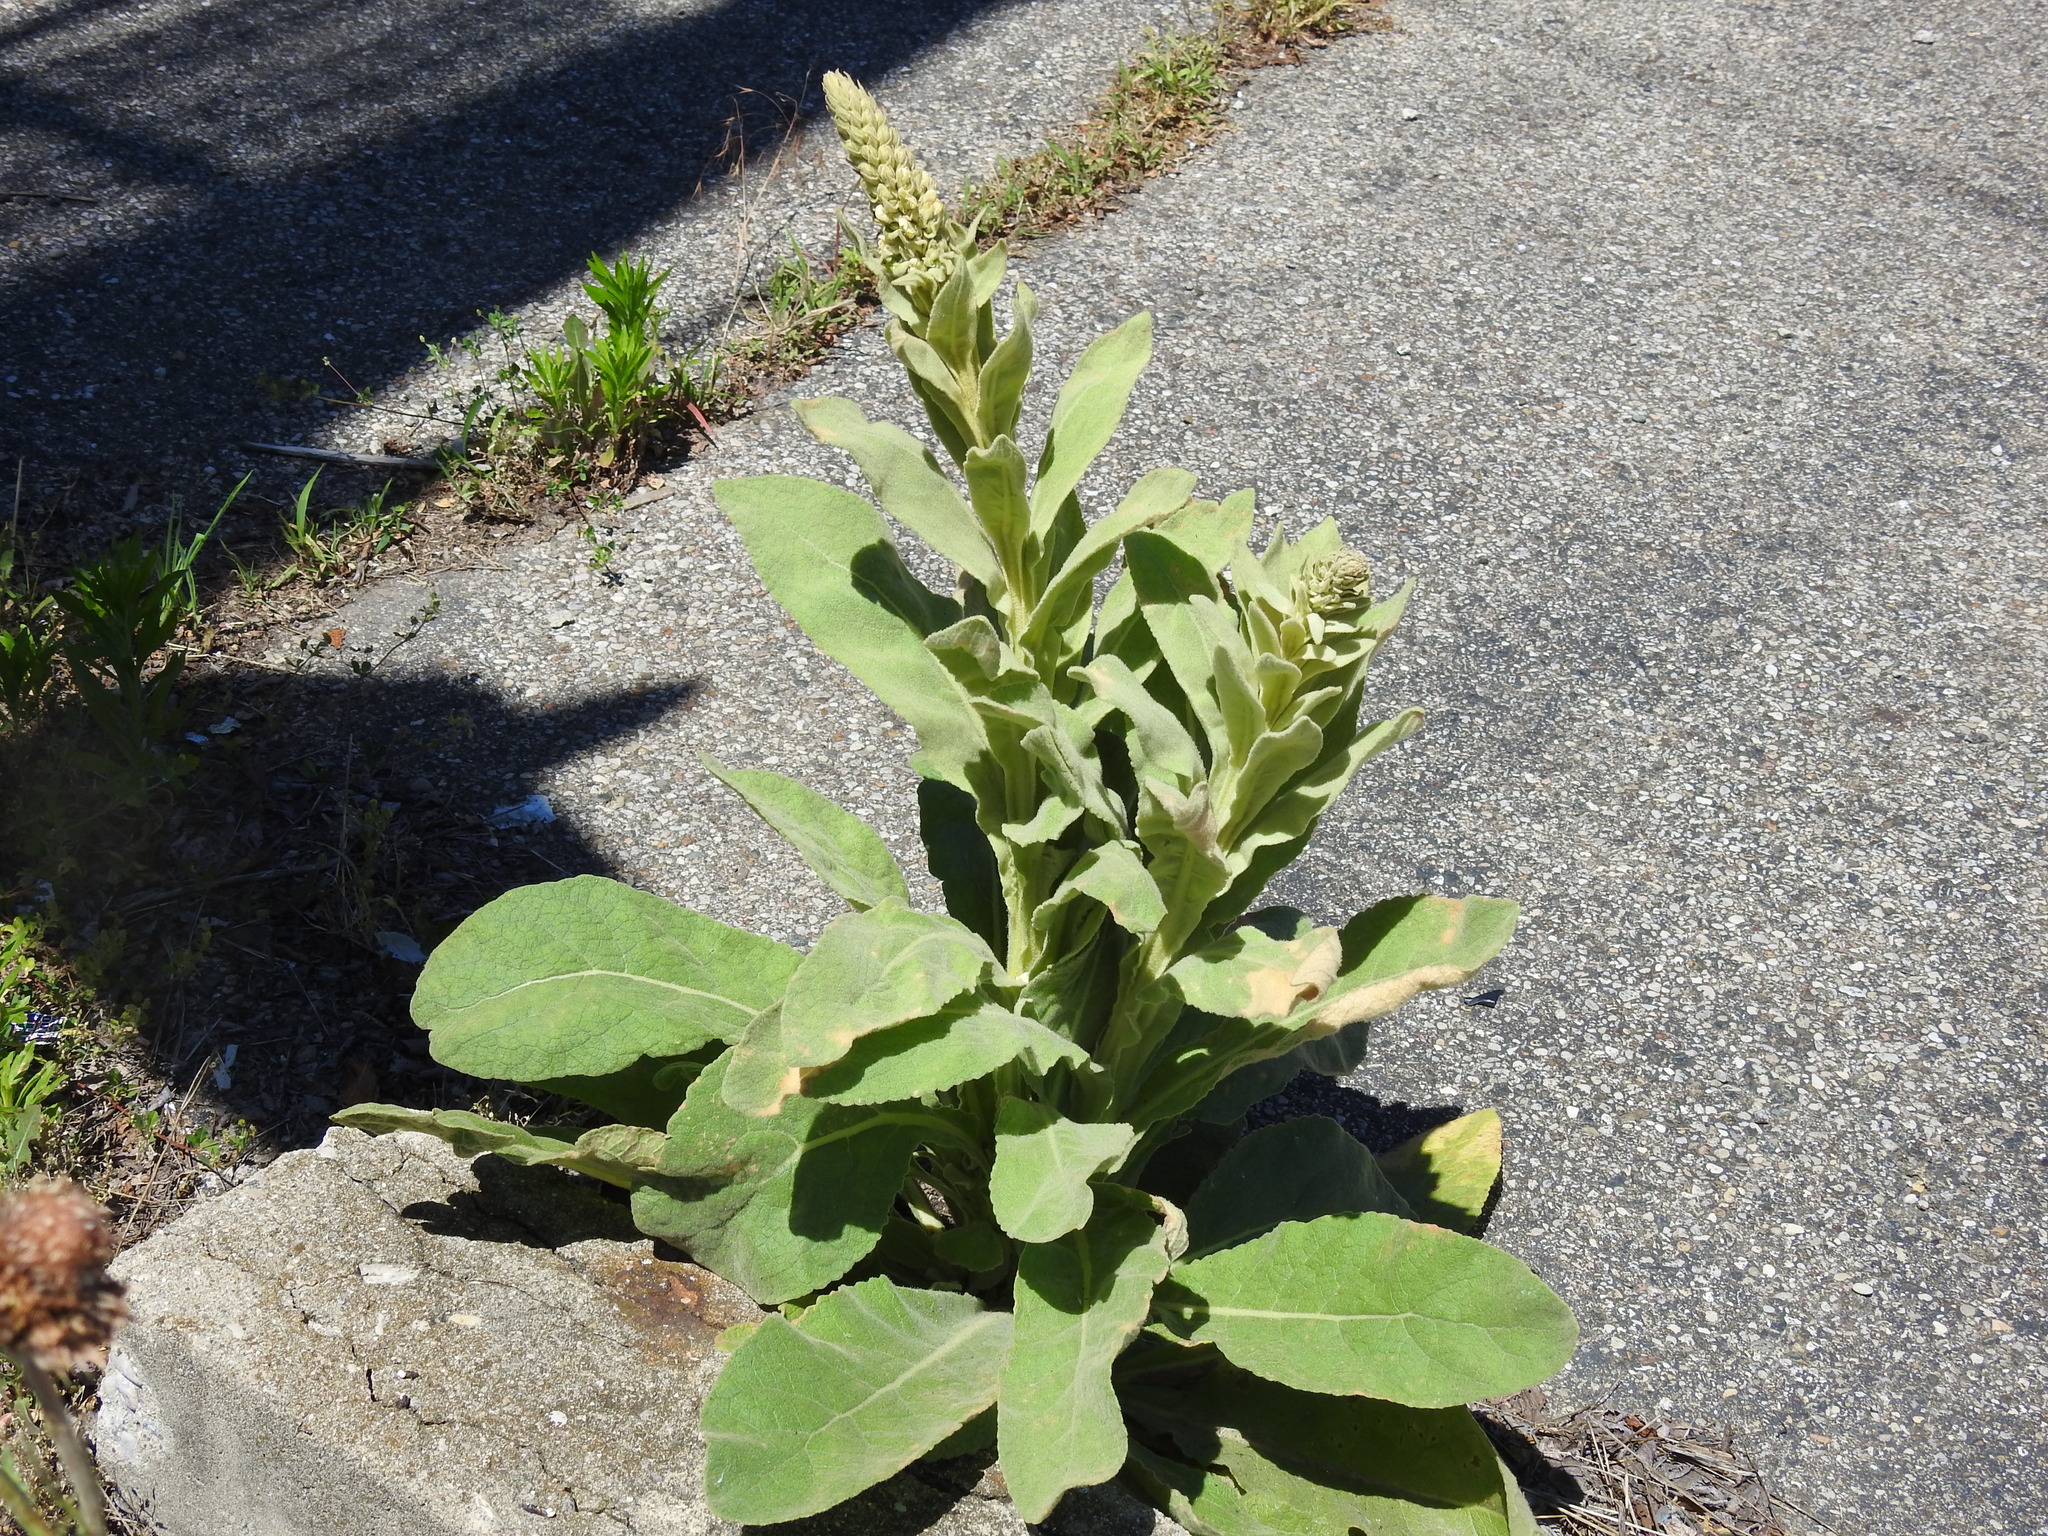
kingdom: Plantae
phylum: Tracheophyta
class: Magnoliopsida
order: Lamiales
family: Scrophulariaceae
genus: Verbascum
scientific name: Verbascum thapsus
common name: Common mullein
